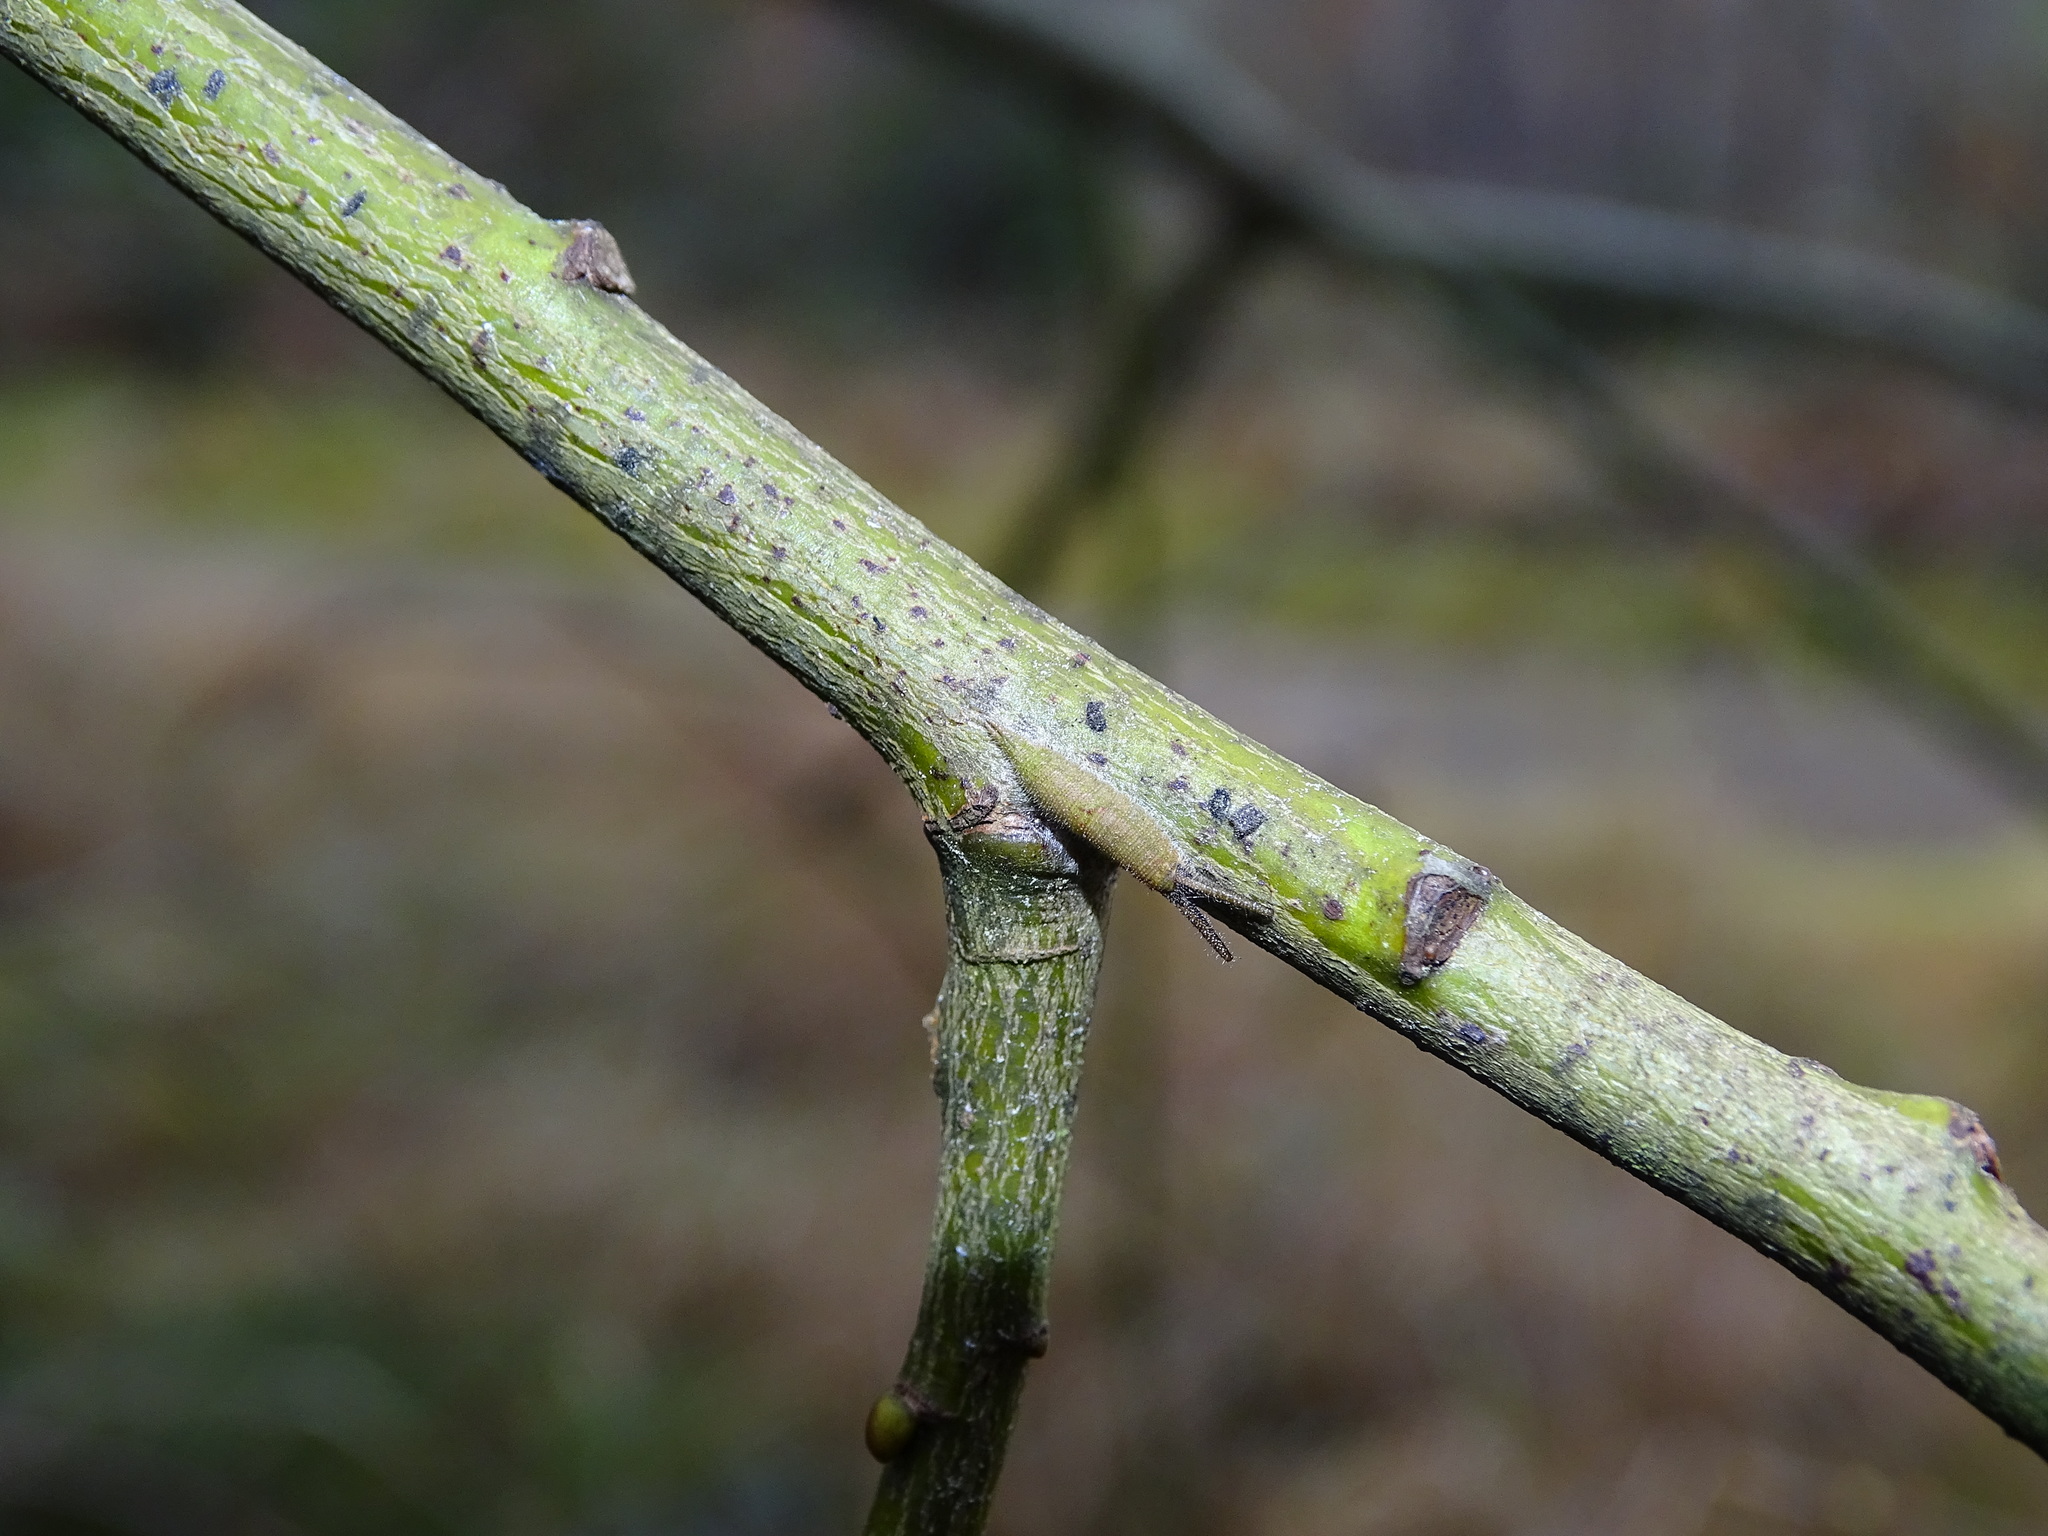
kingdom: Animalia
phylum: Arthropoda
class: Insecta
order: Lepidoptera
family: Nymphalidae
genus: Apatura
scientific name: Apatura iris
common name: Purple emperor
